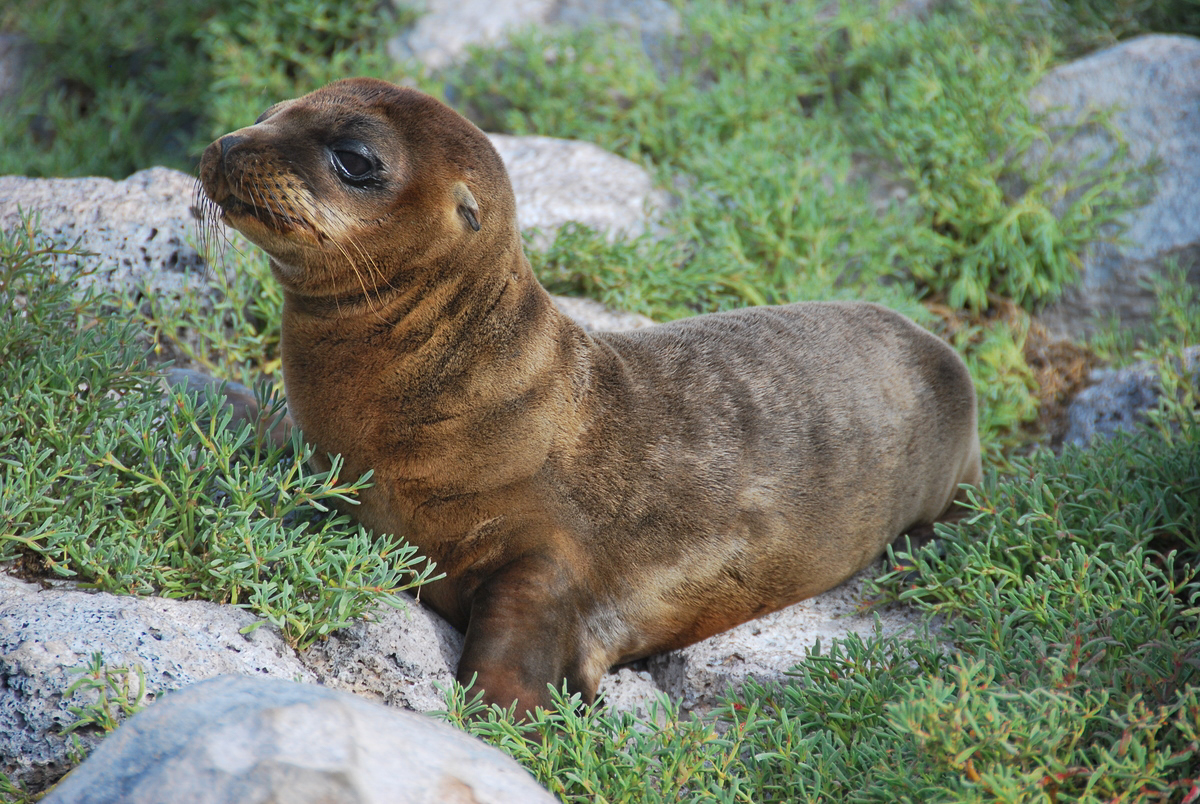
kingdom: Animalia
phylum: Chordata
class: Mammalia
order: Carnivora
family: Otariidae
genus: Zalophus
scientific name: Zalophus wollebaeki
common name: Galapagos sea lion
